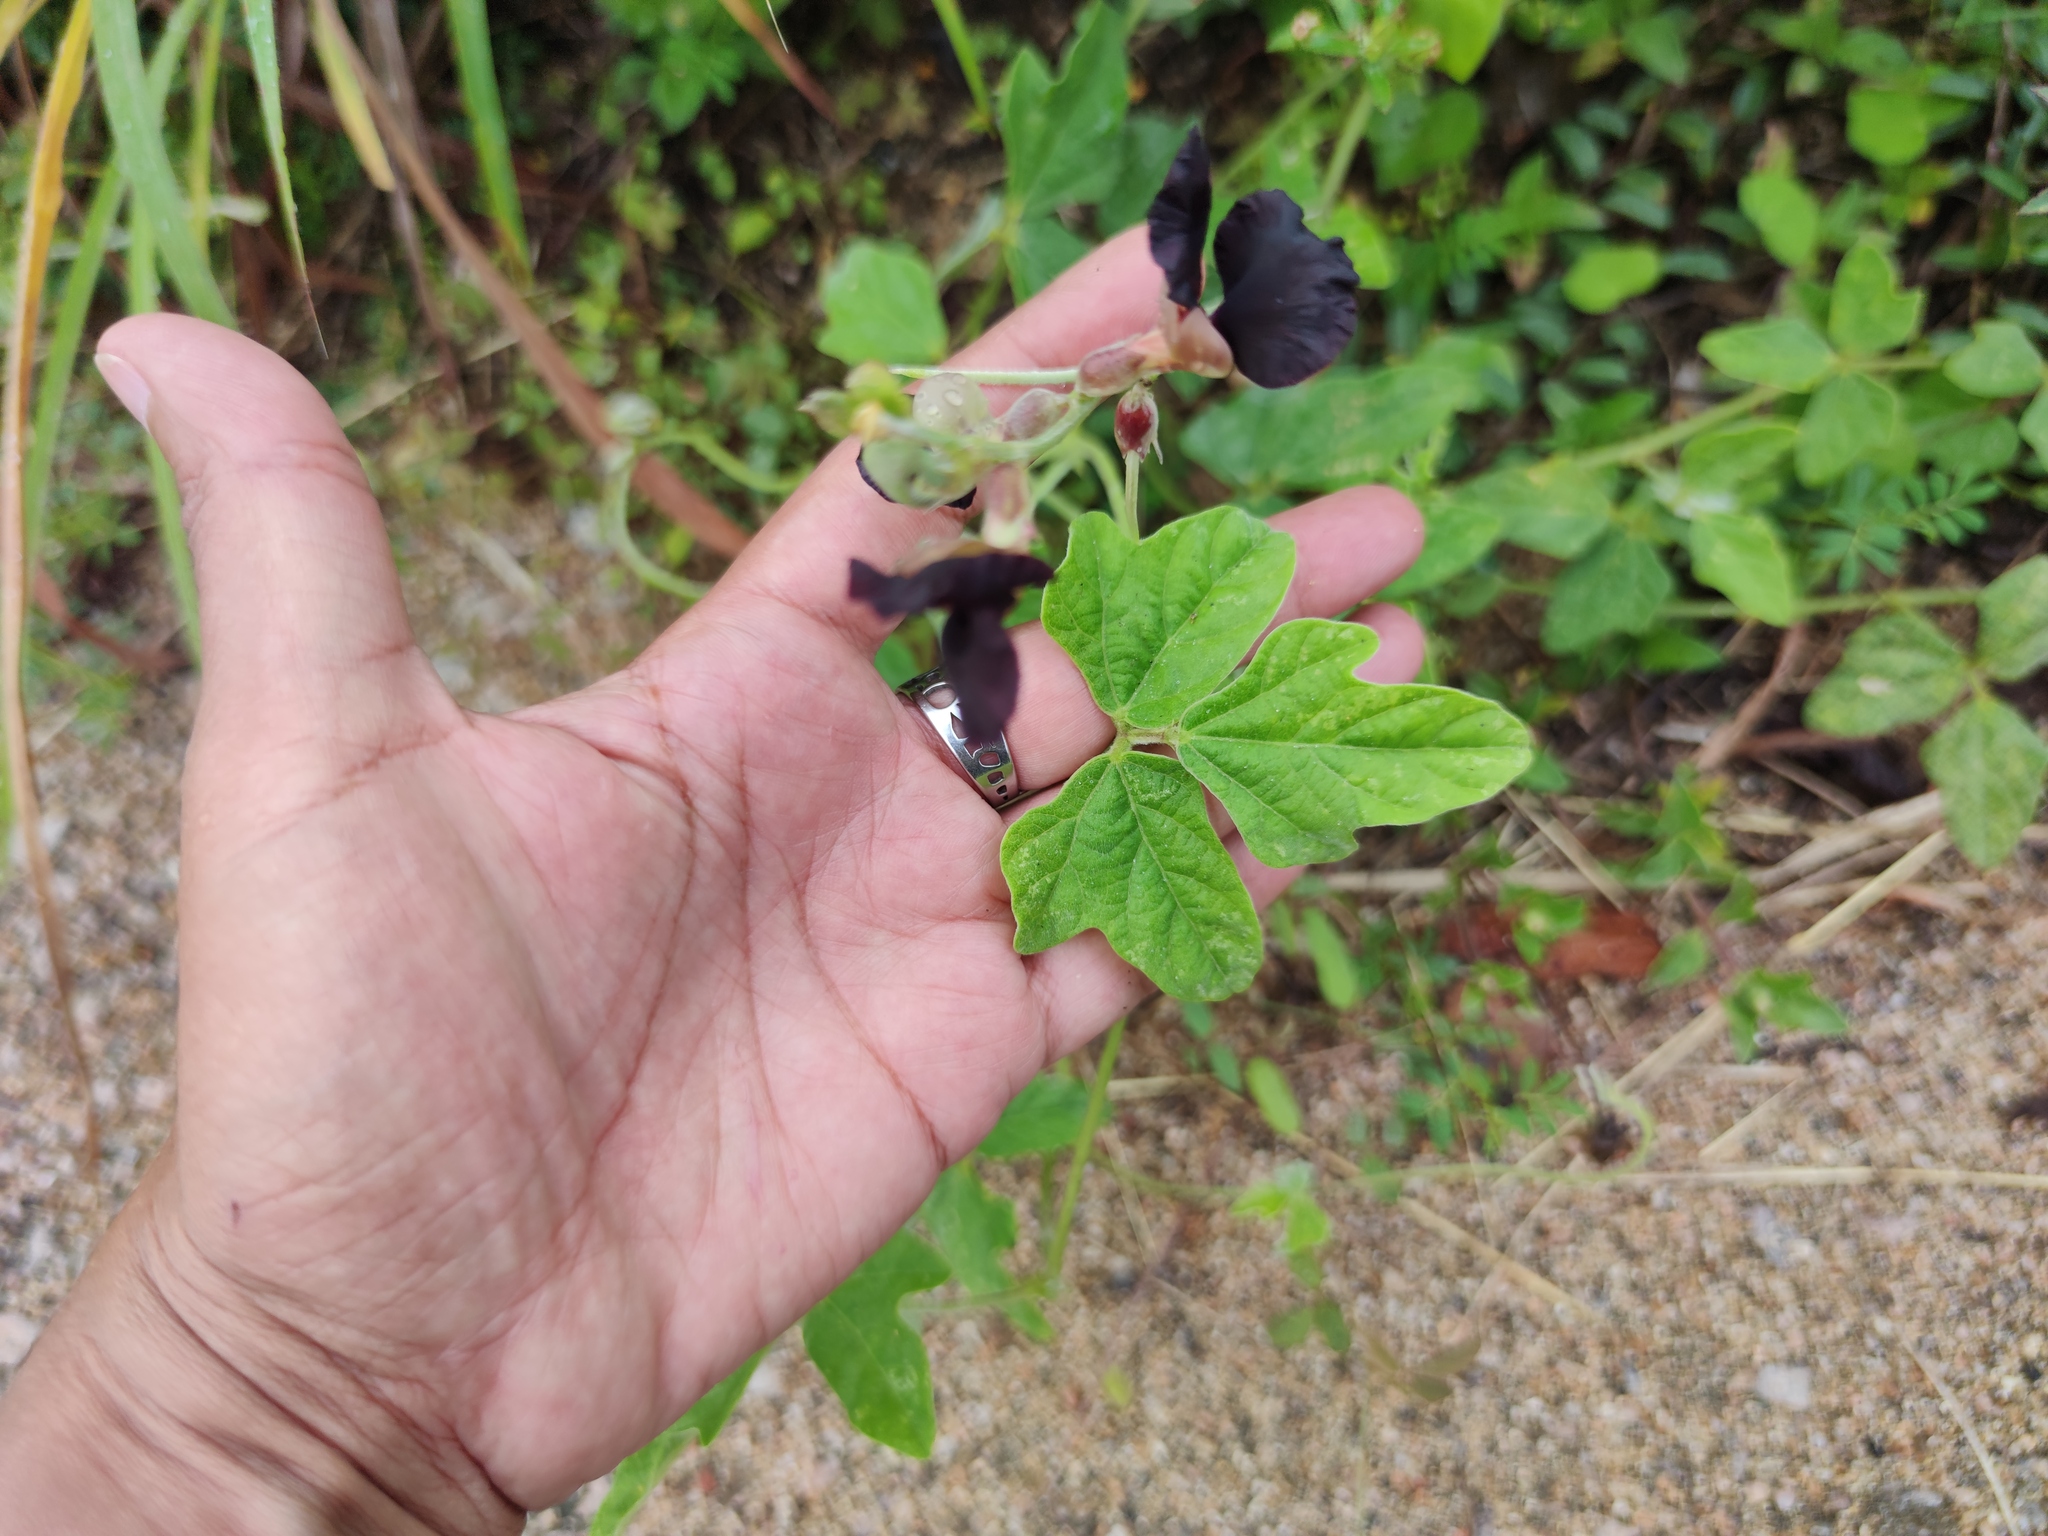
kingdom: Plantae
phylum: Tracheophyta
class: Magnoliopsida
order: Fabales
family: Fabaceae
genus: Macroptilium
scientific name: Macroptilium atropurpureum
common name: Purple bushbean
